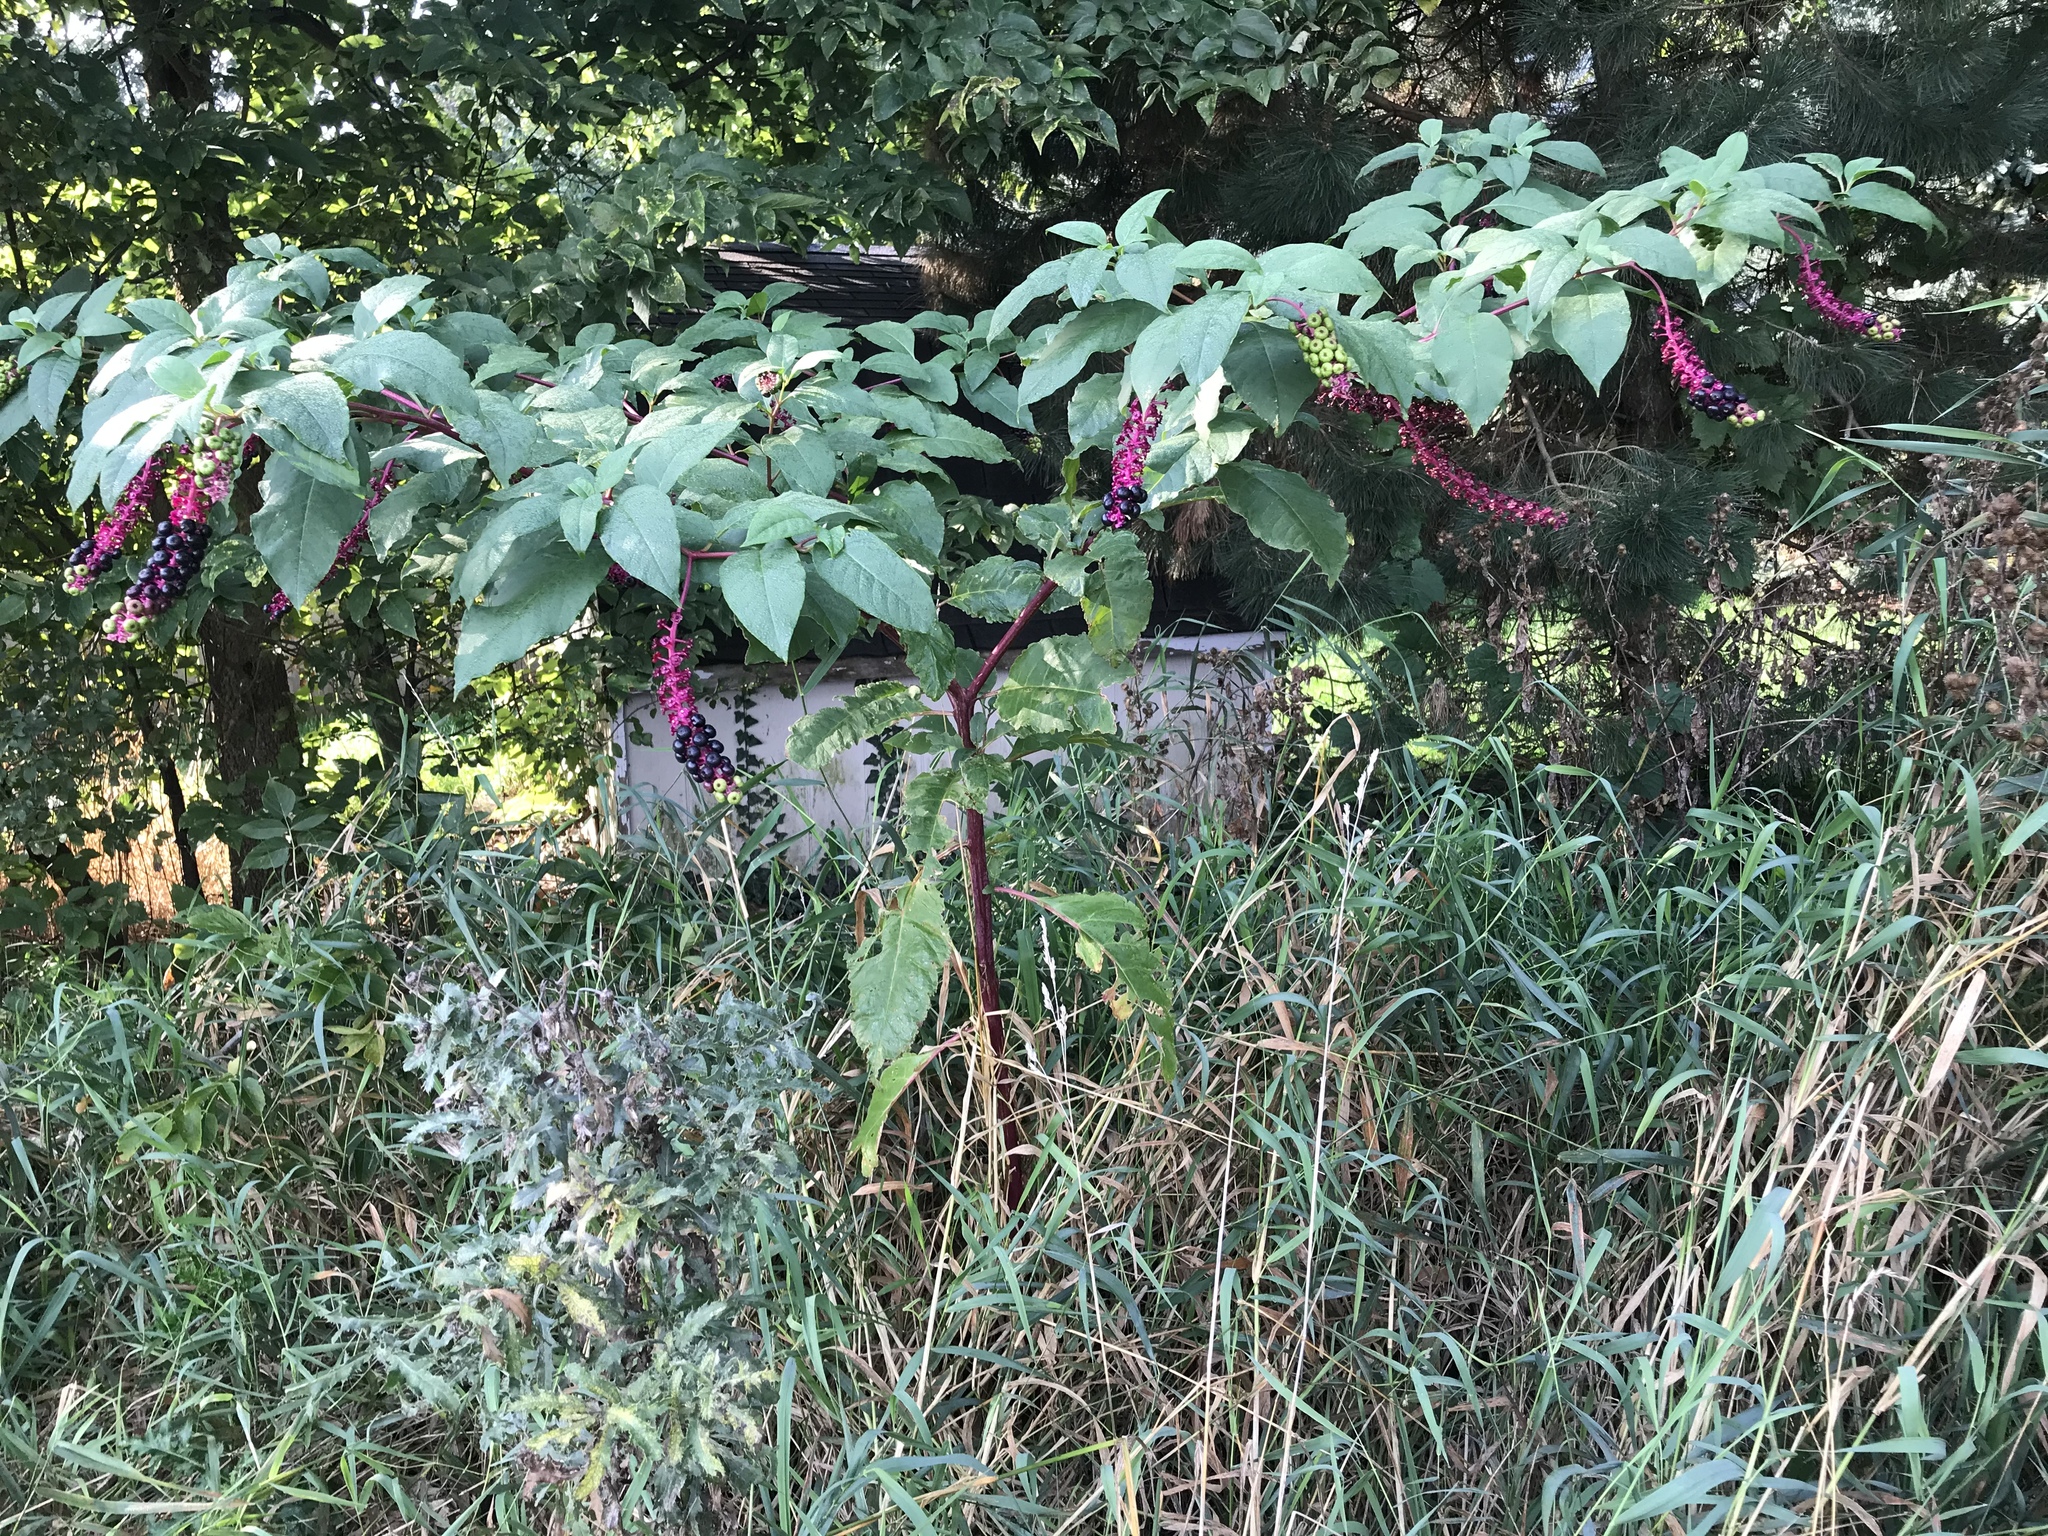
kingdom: Plantae
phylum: Tracheophyta
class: Magnoliopsida
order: Caryophyllales
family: Phytolaccaceae
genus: Phytolacca
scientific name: Phytolacca americana
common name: American pokeweed
